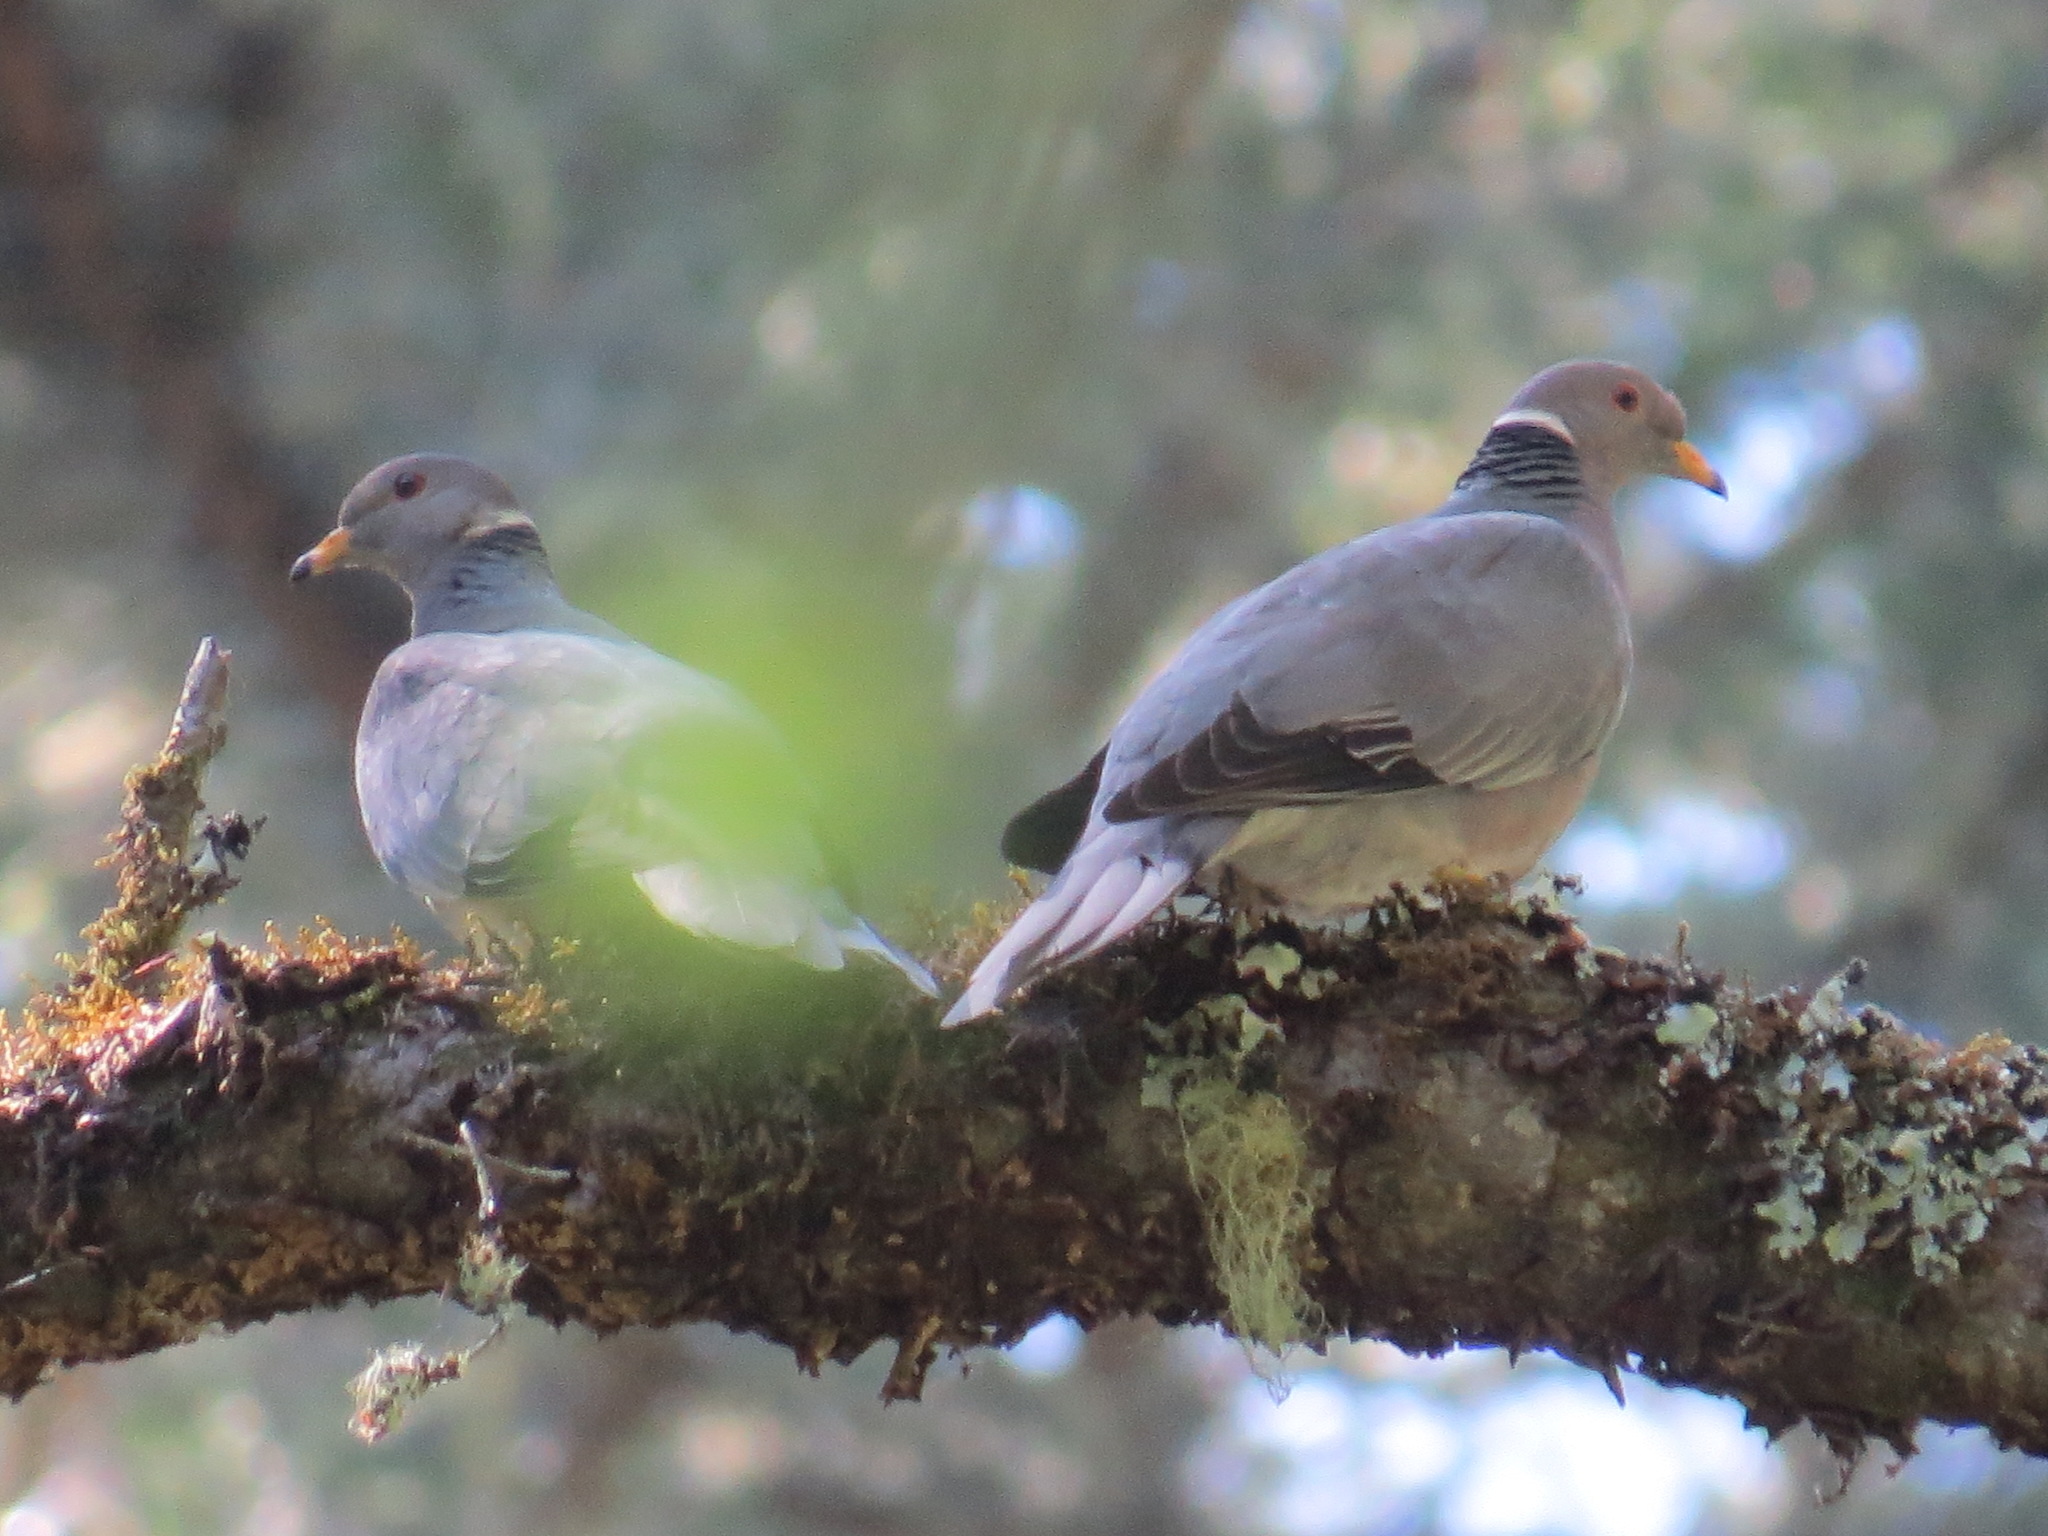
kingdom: Animalia
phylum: Chordata
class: Aves
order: Columbiformes
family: Columbidae
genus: Patagioenas
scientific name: Patagioenas fasciata
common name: Band-tailed pigeon
